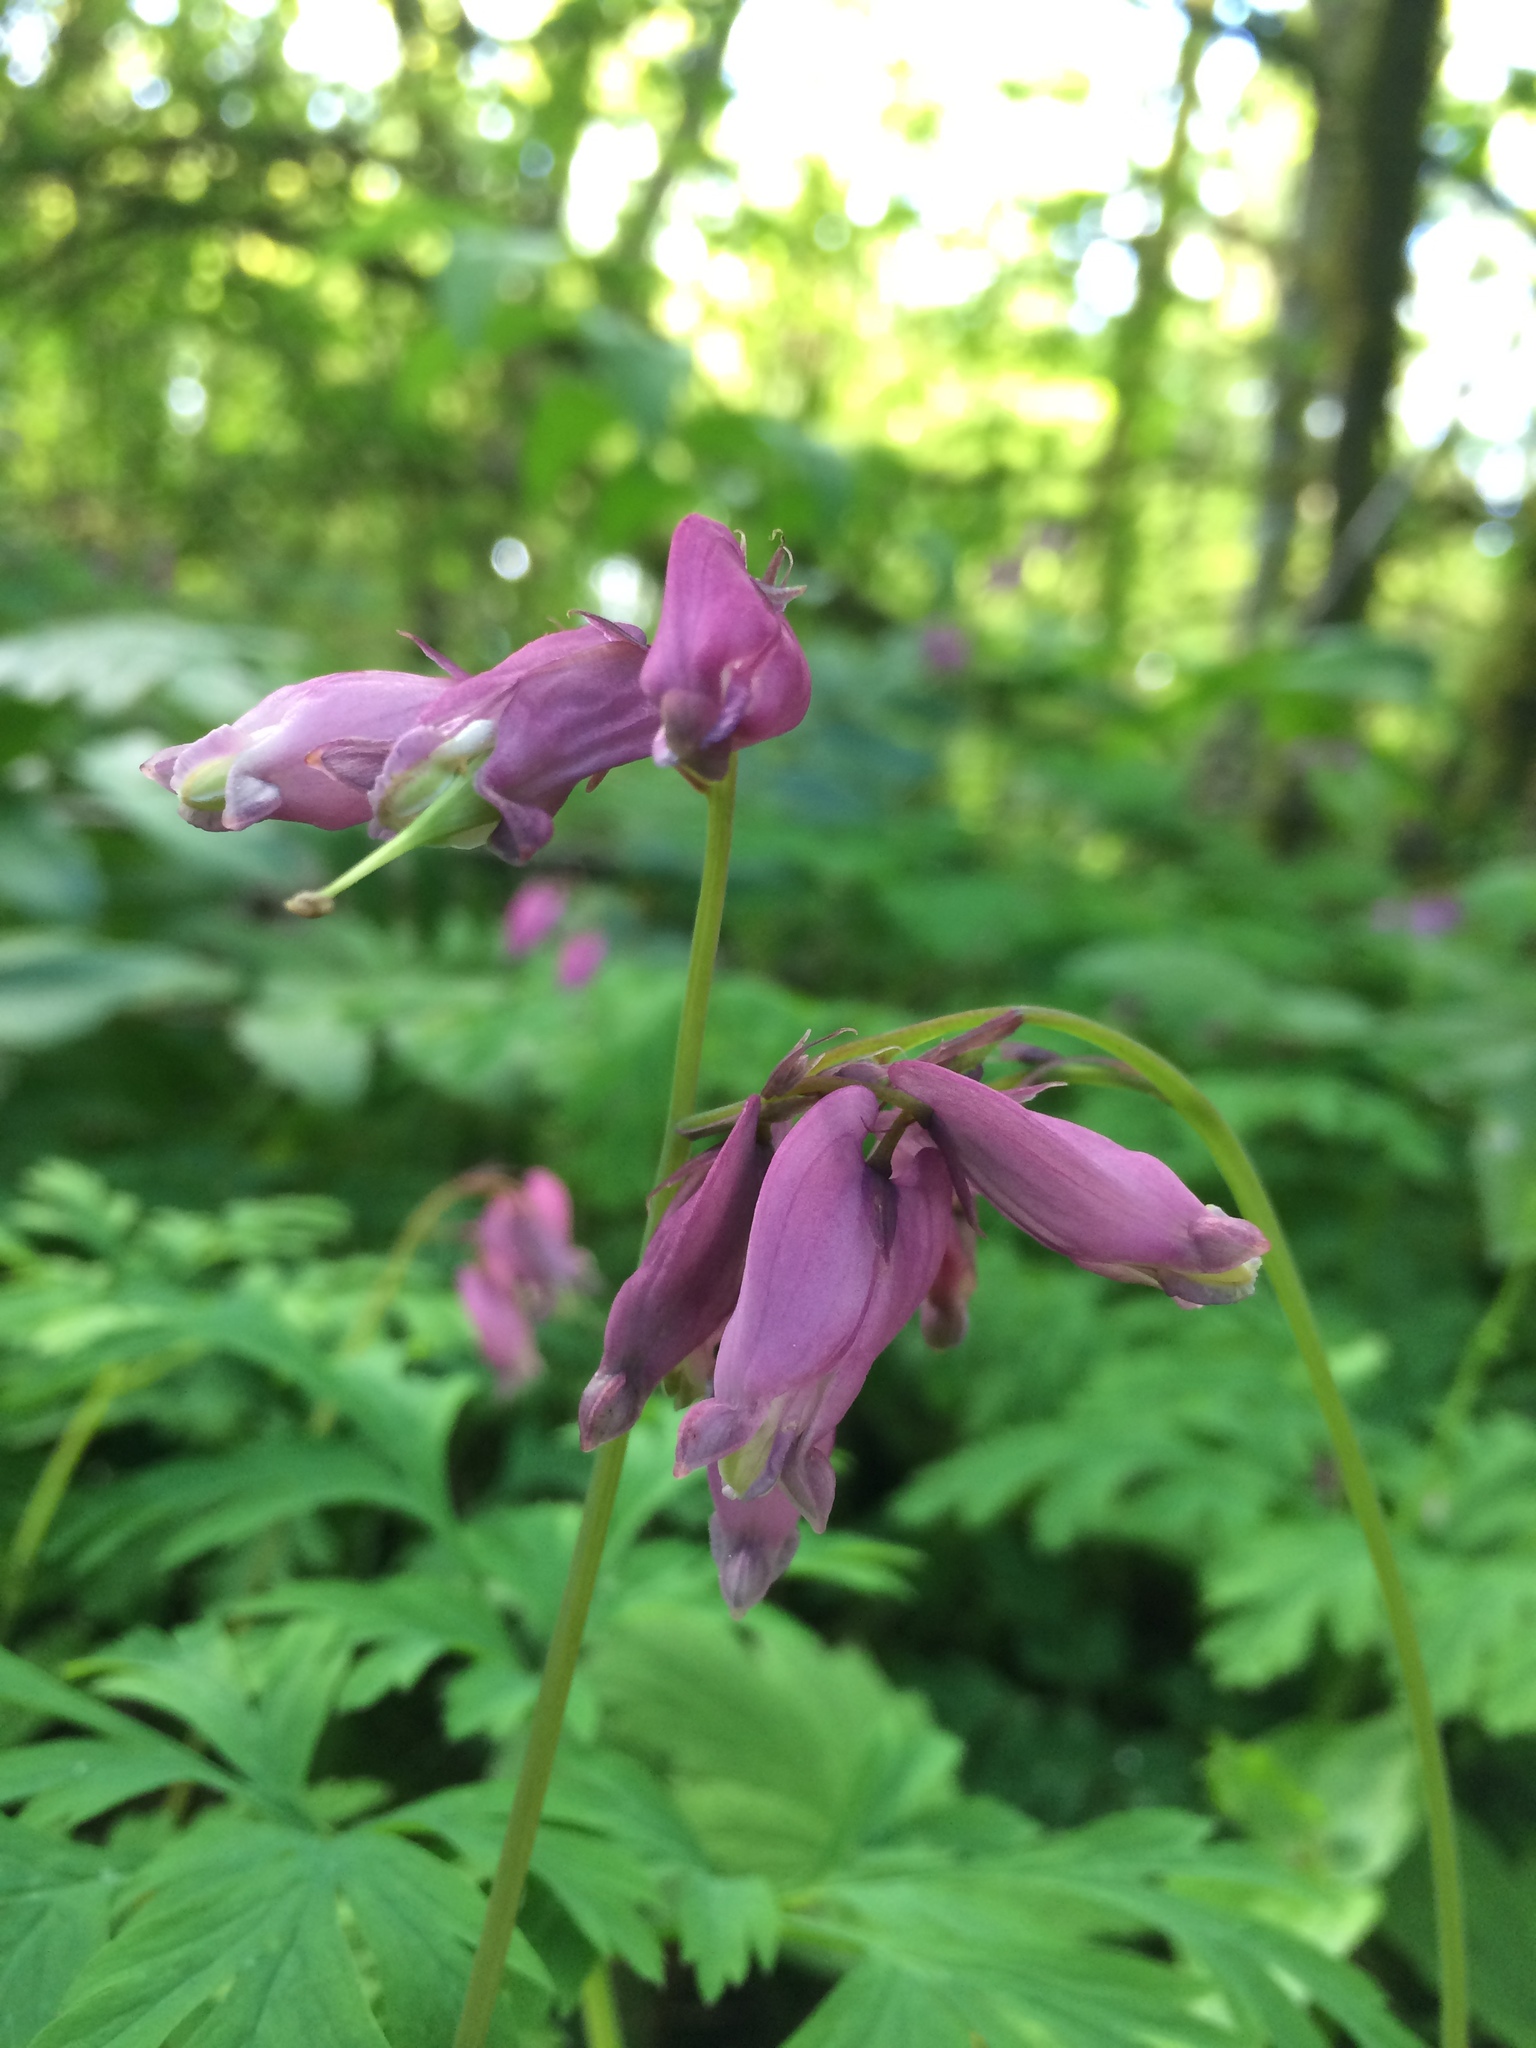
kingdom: Plantae
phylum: Tracheophyta
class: Magnoliopsida
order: Ranunculales
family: Papaveraceae
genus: Dicentra
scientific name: Dicentra formosa
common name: Bleeding-heart
